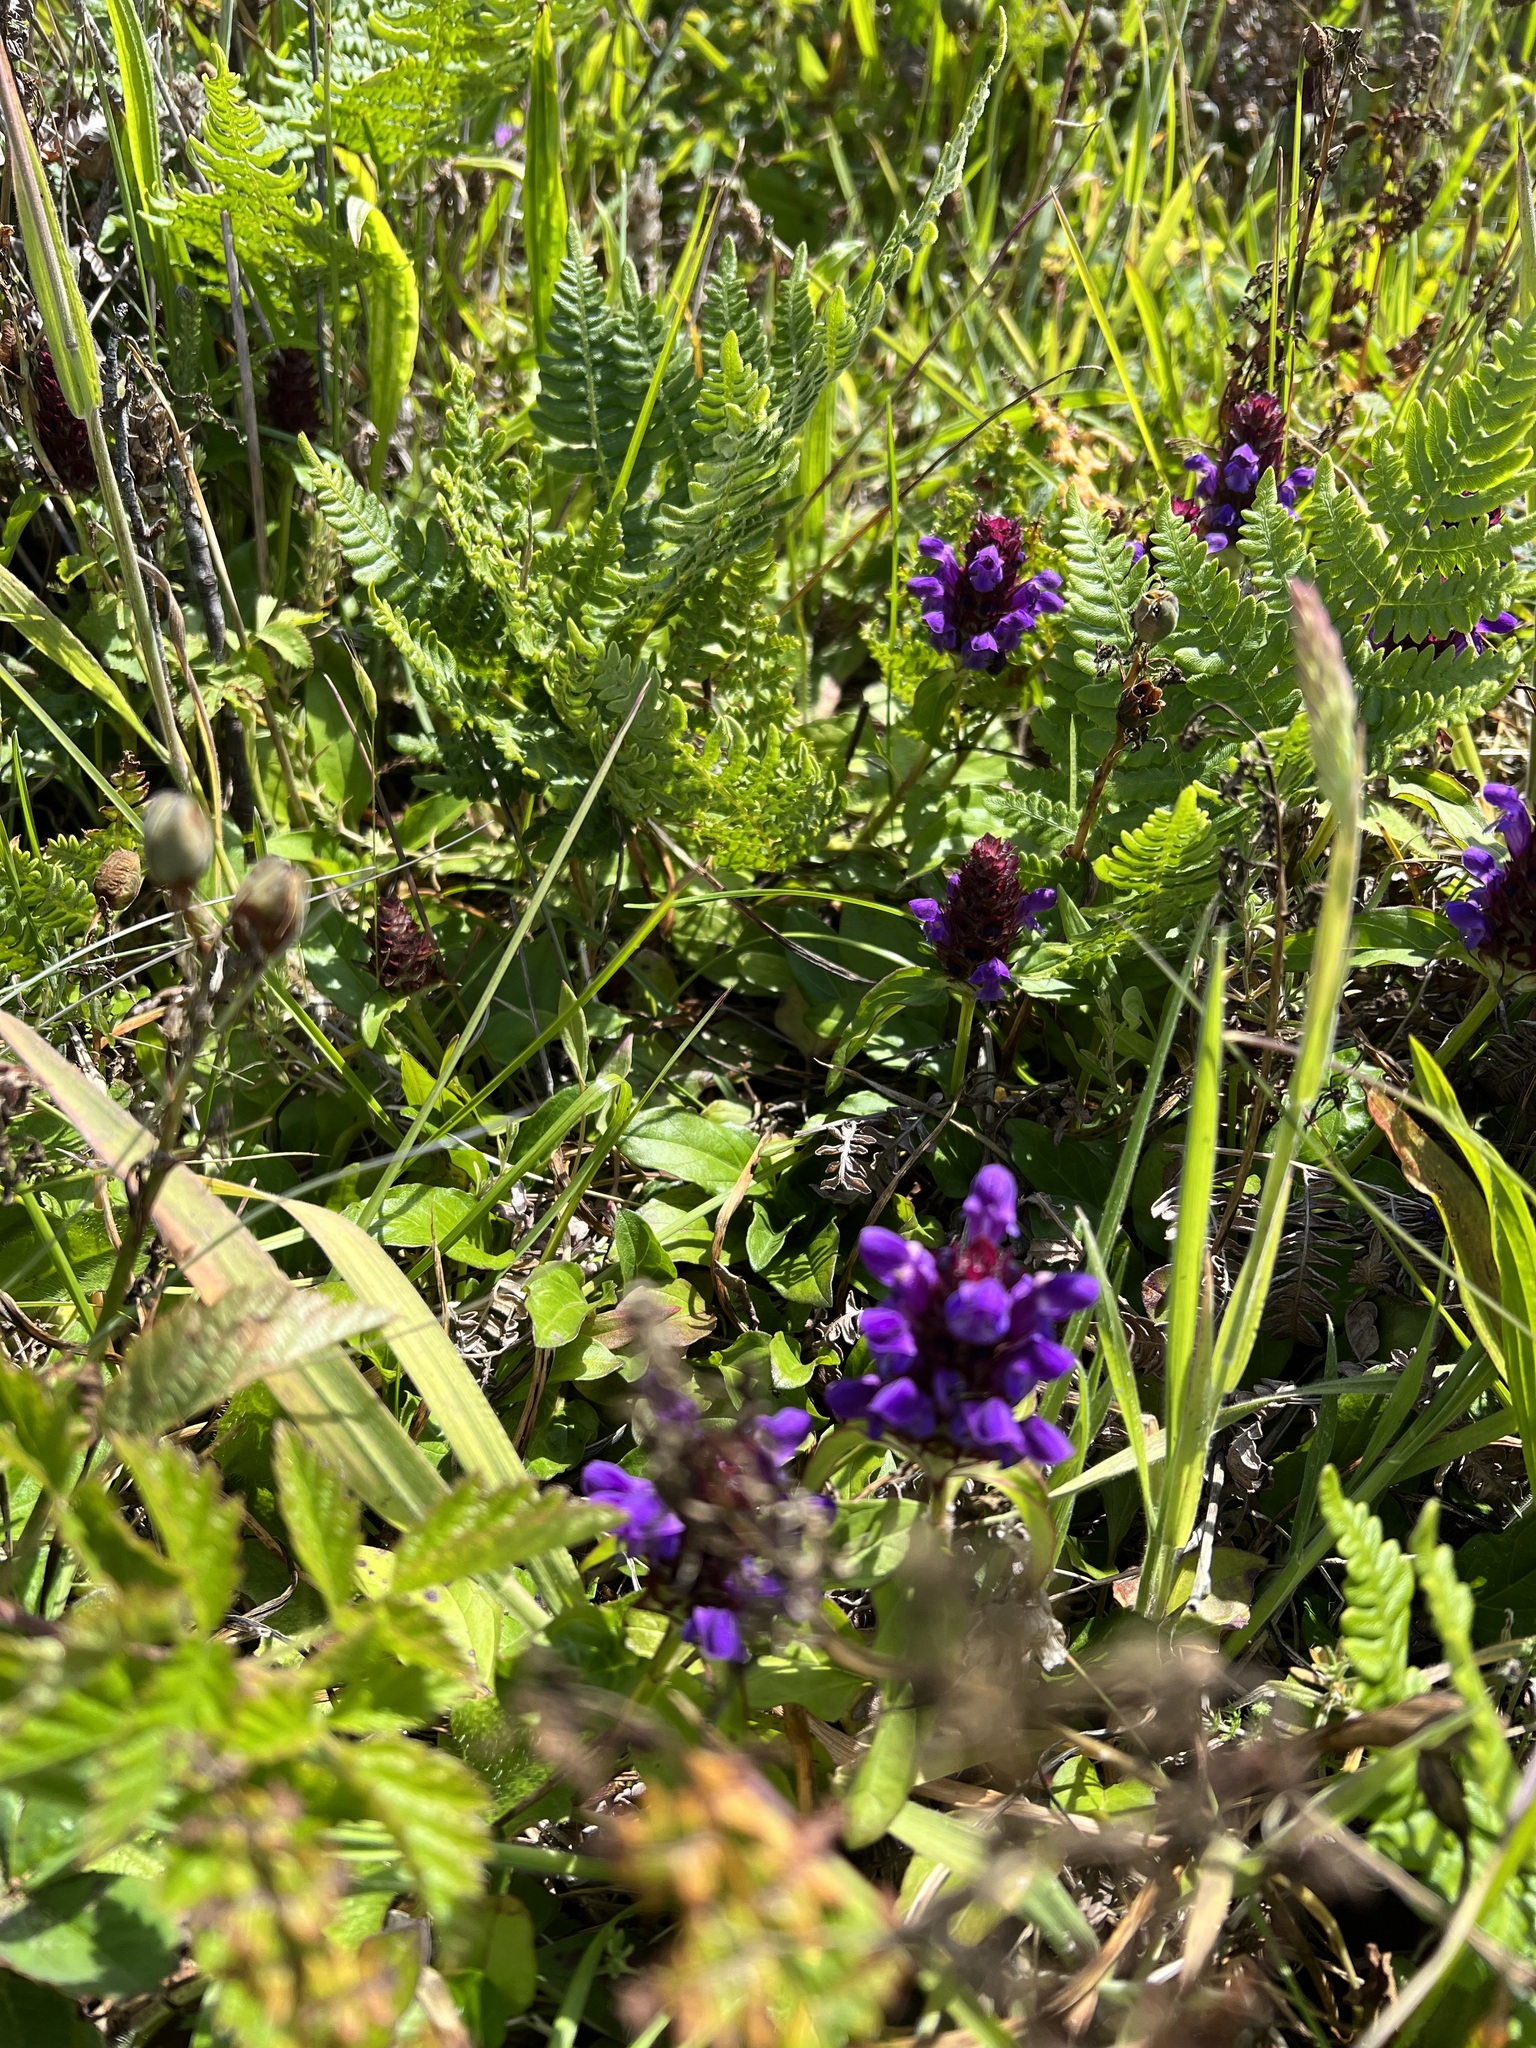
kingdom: Plantae
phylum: Tracheophyta
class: Magnoliopsida
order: Lamiales
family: Lamiaceae
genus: Prunella
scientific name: Prunella vulgaris
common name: Heal-all
